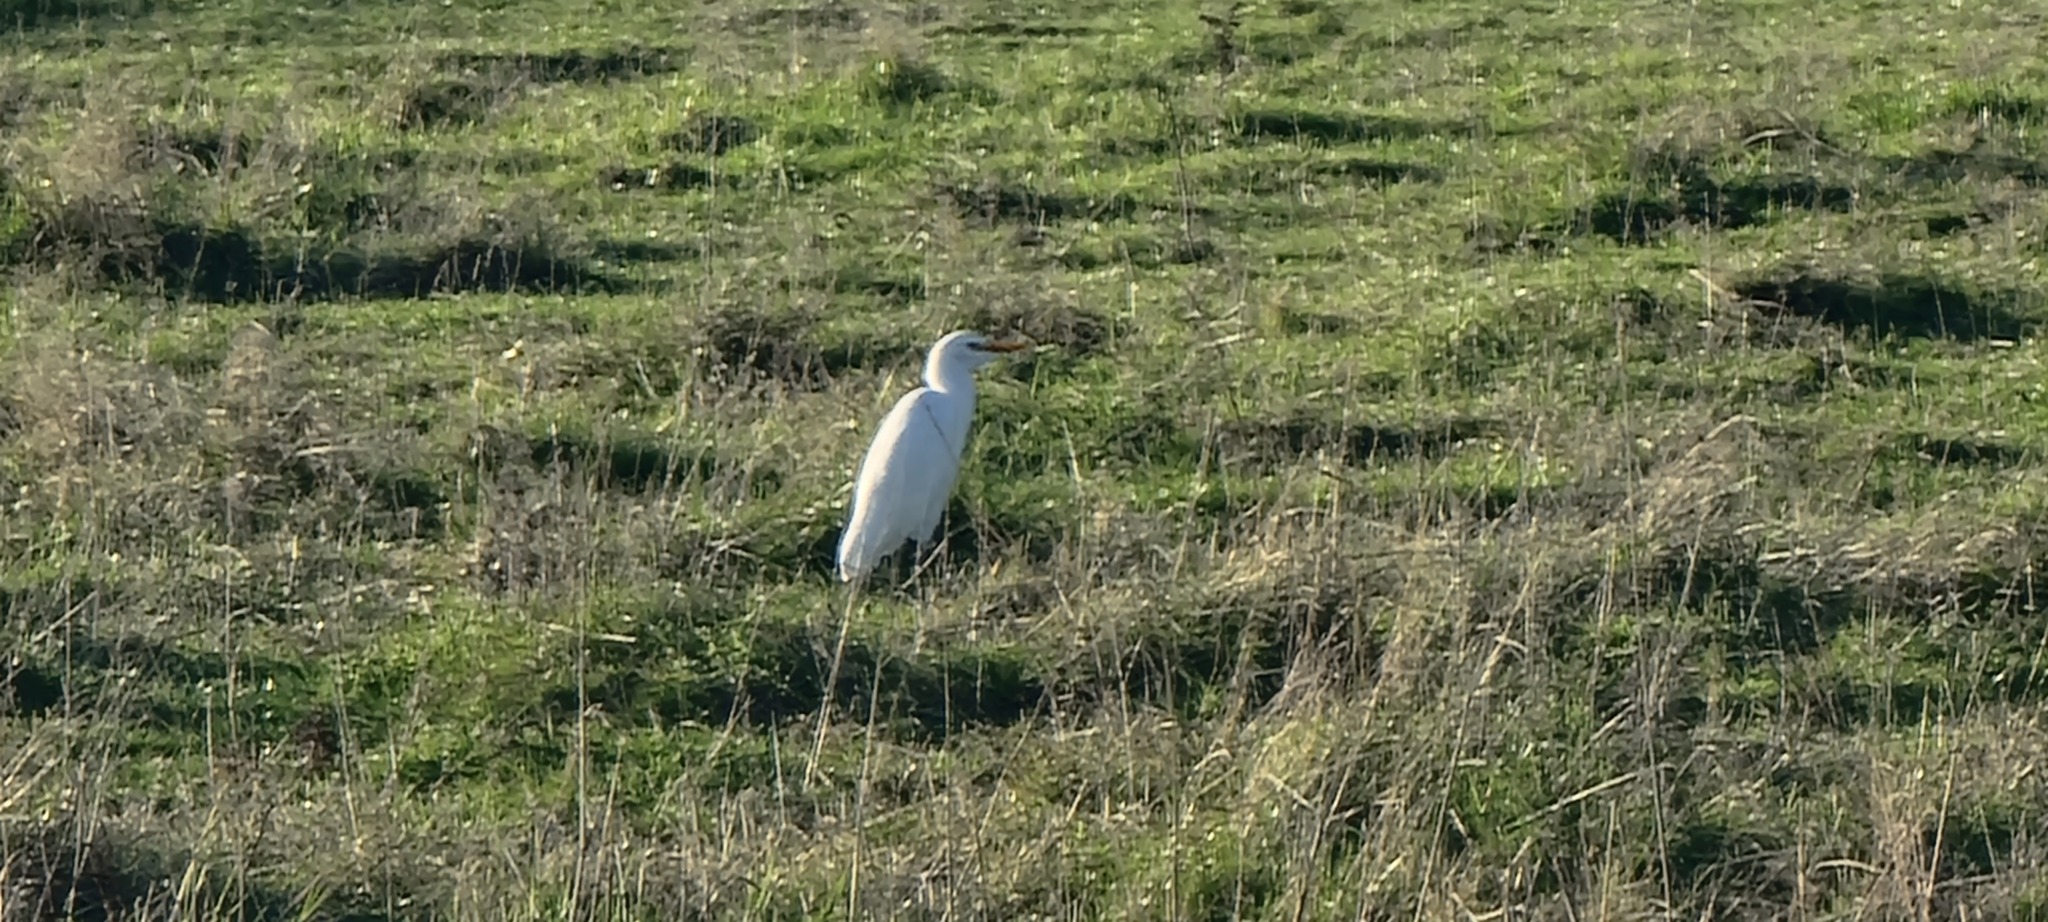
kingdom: Animalia
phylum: Chordata
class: Aves
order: Pelecaniformes
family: Ardeidae
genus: Bubulcus
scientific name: Bubulcus ibis
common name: Cattle egret
